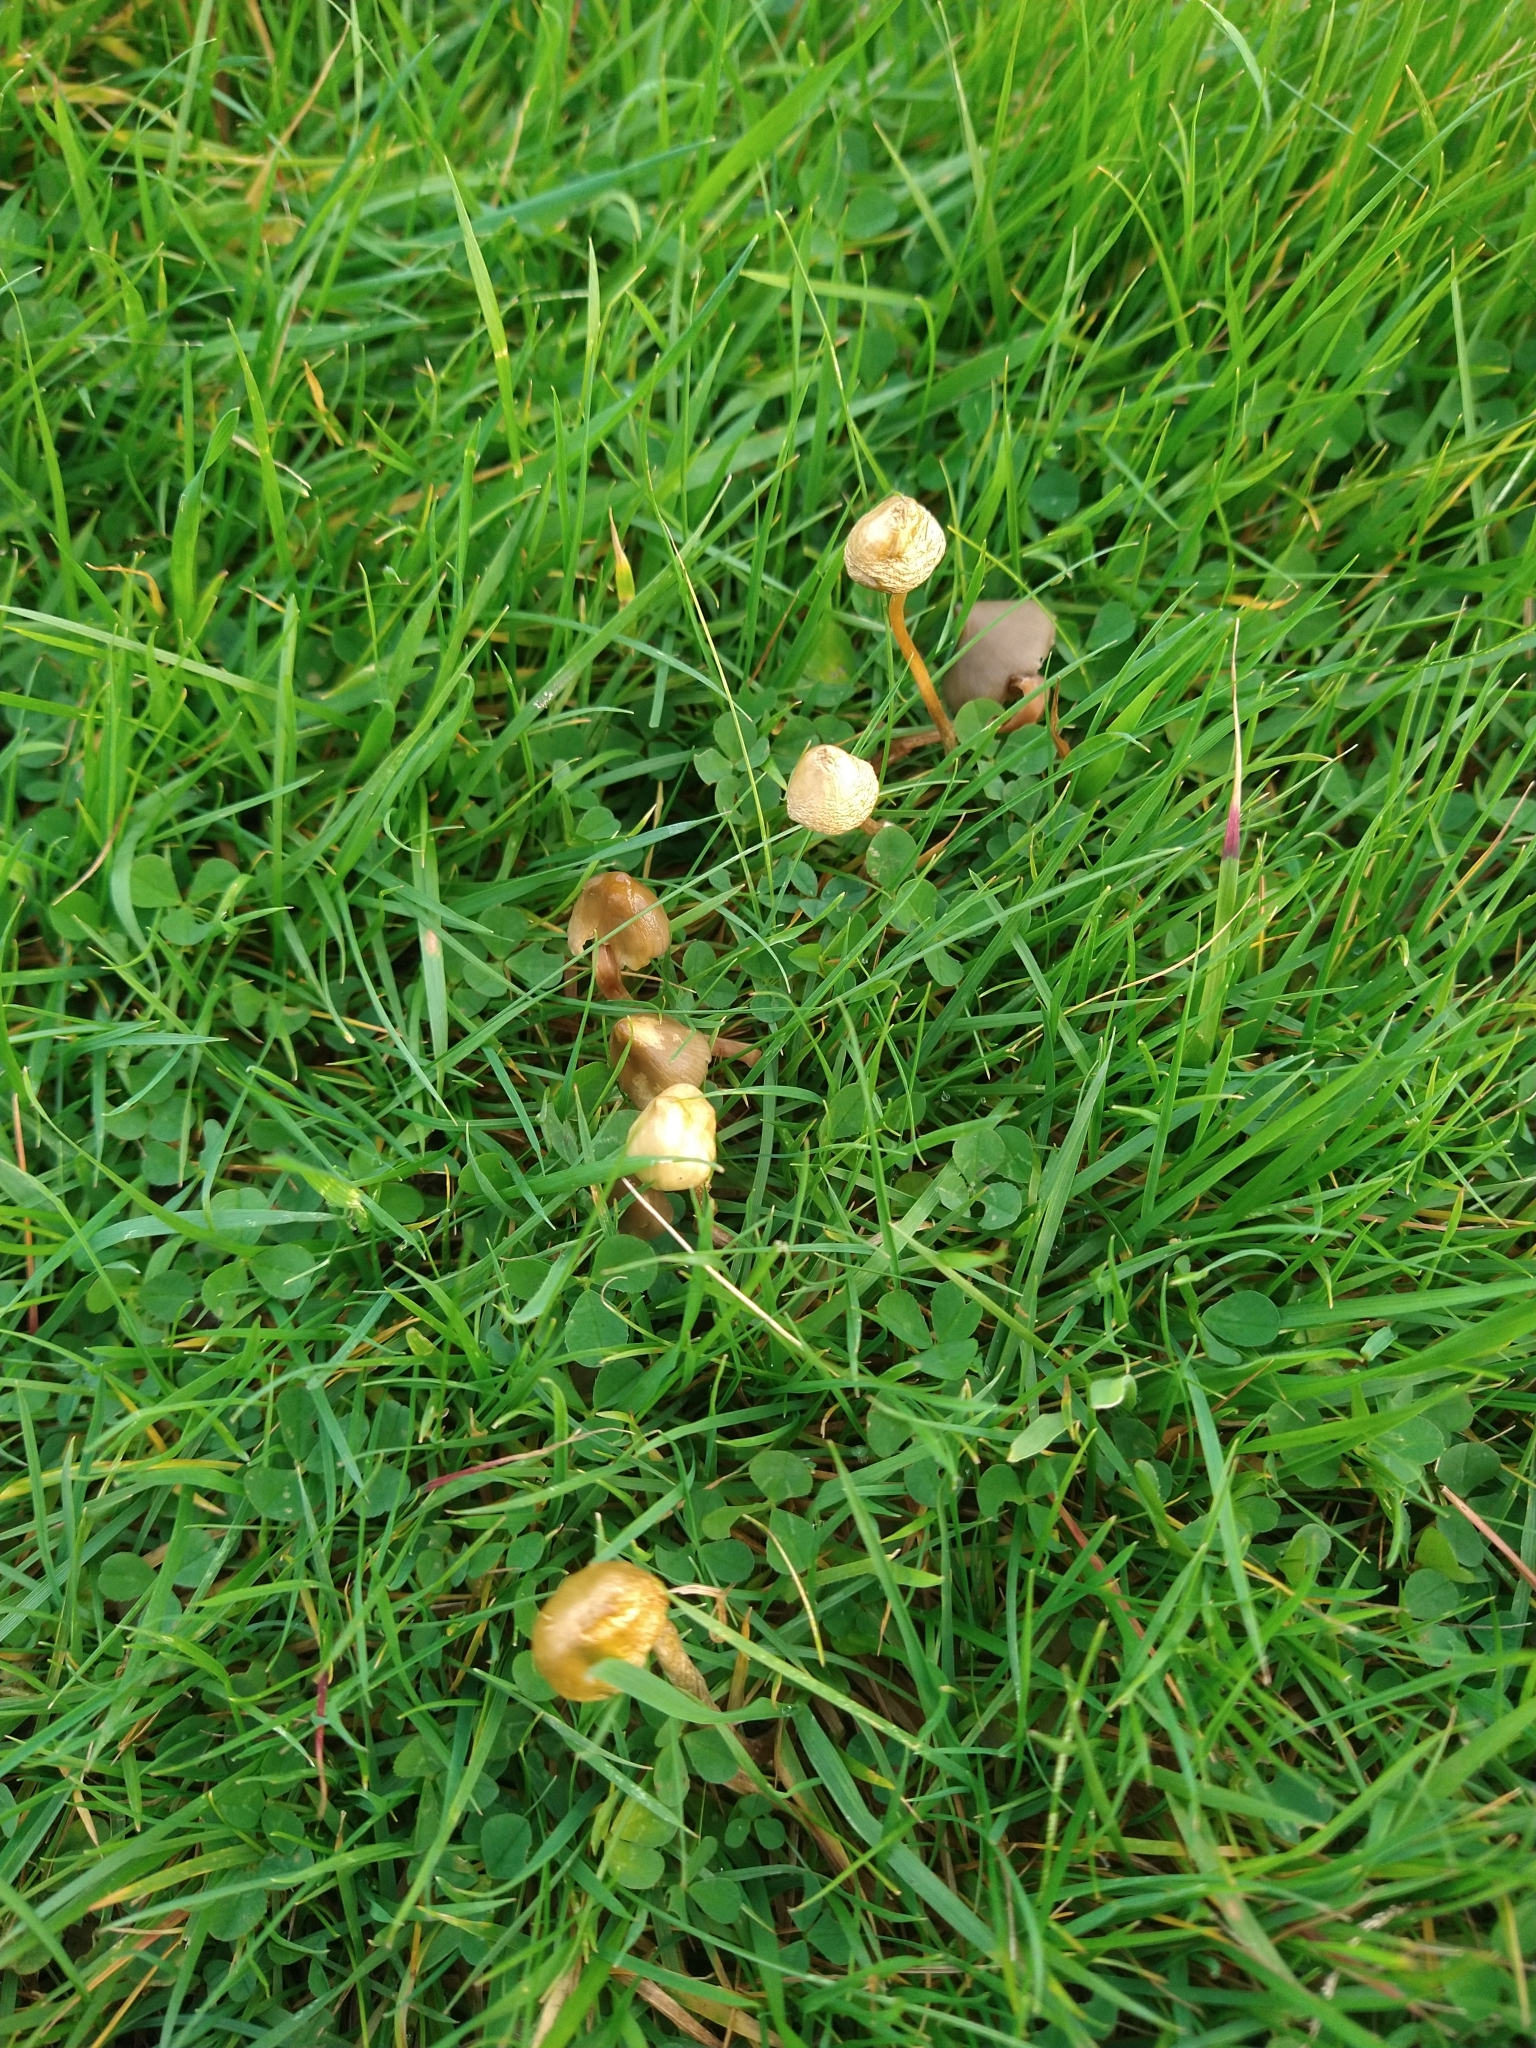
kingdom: Fungi
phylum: Basidiomycota
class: Agaricomycetes
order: Agaricales
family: Hymenogastraceae
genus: Psilocybe
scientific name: Psilocybe semilanceata
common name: Liberty cap
